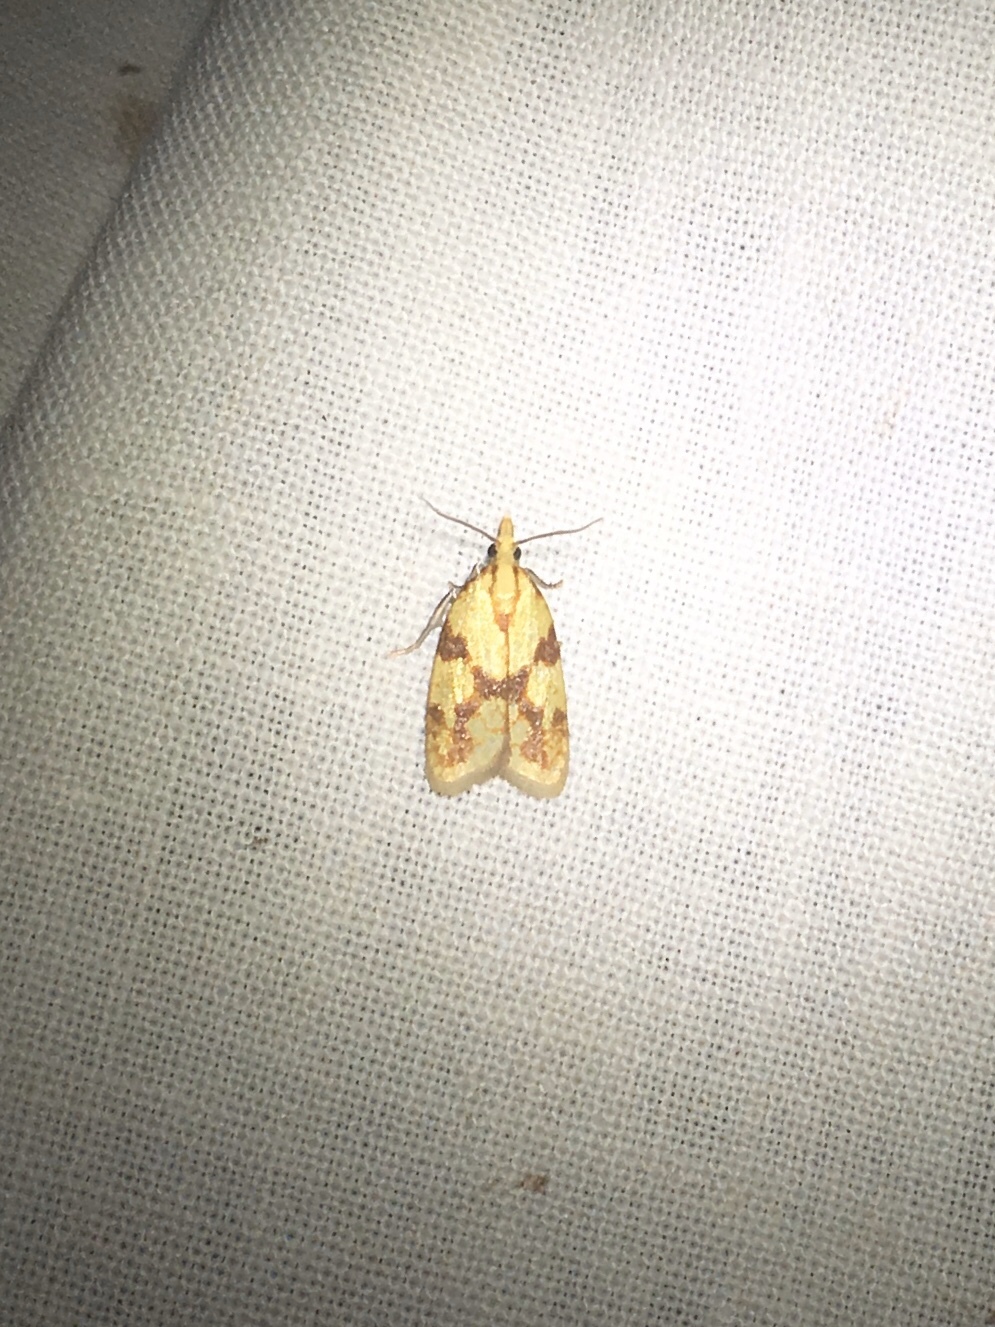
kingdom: Animalia
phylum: Arthropoda
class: Insecta
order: Lepidoptera
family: Tortricidae
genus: Sparganothis
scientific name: Sparganothis sulfureana
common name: Sparganothis fruitworm moth
